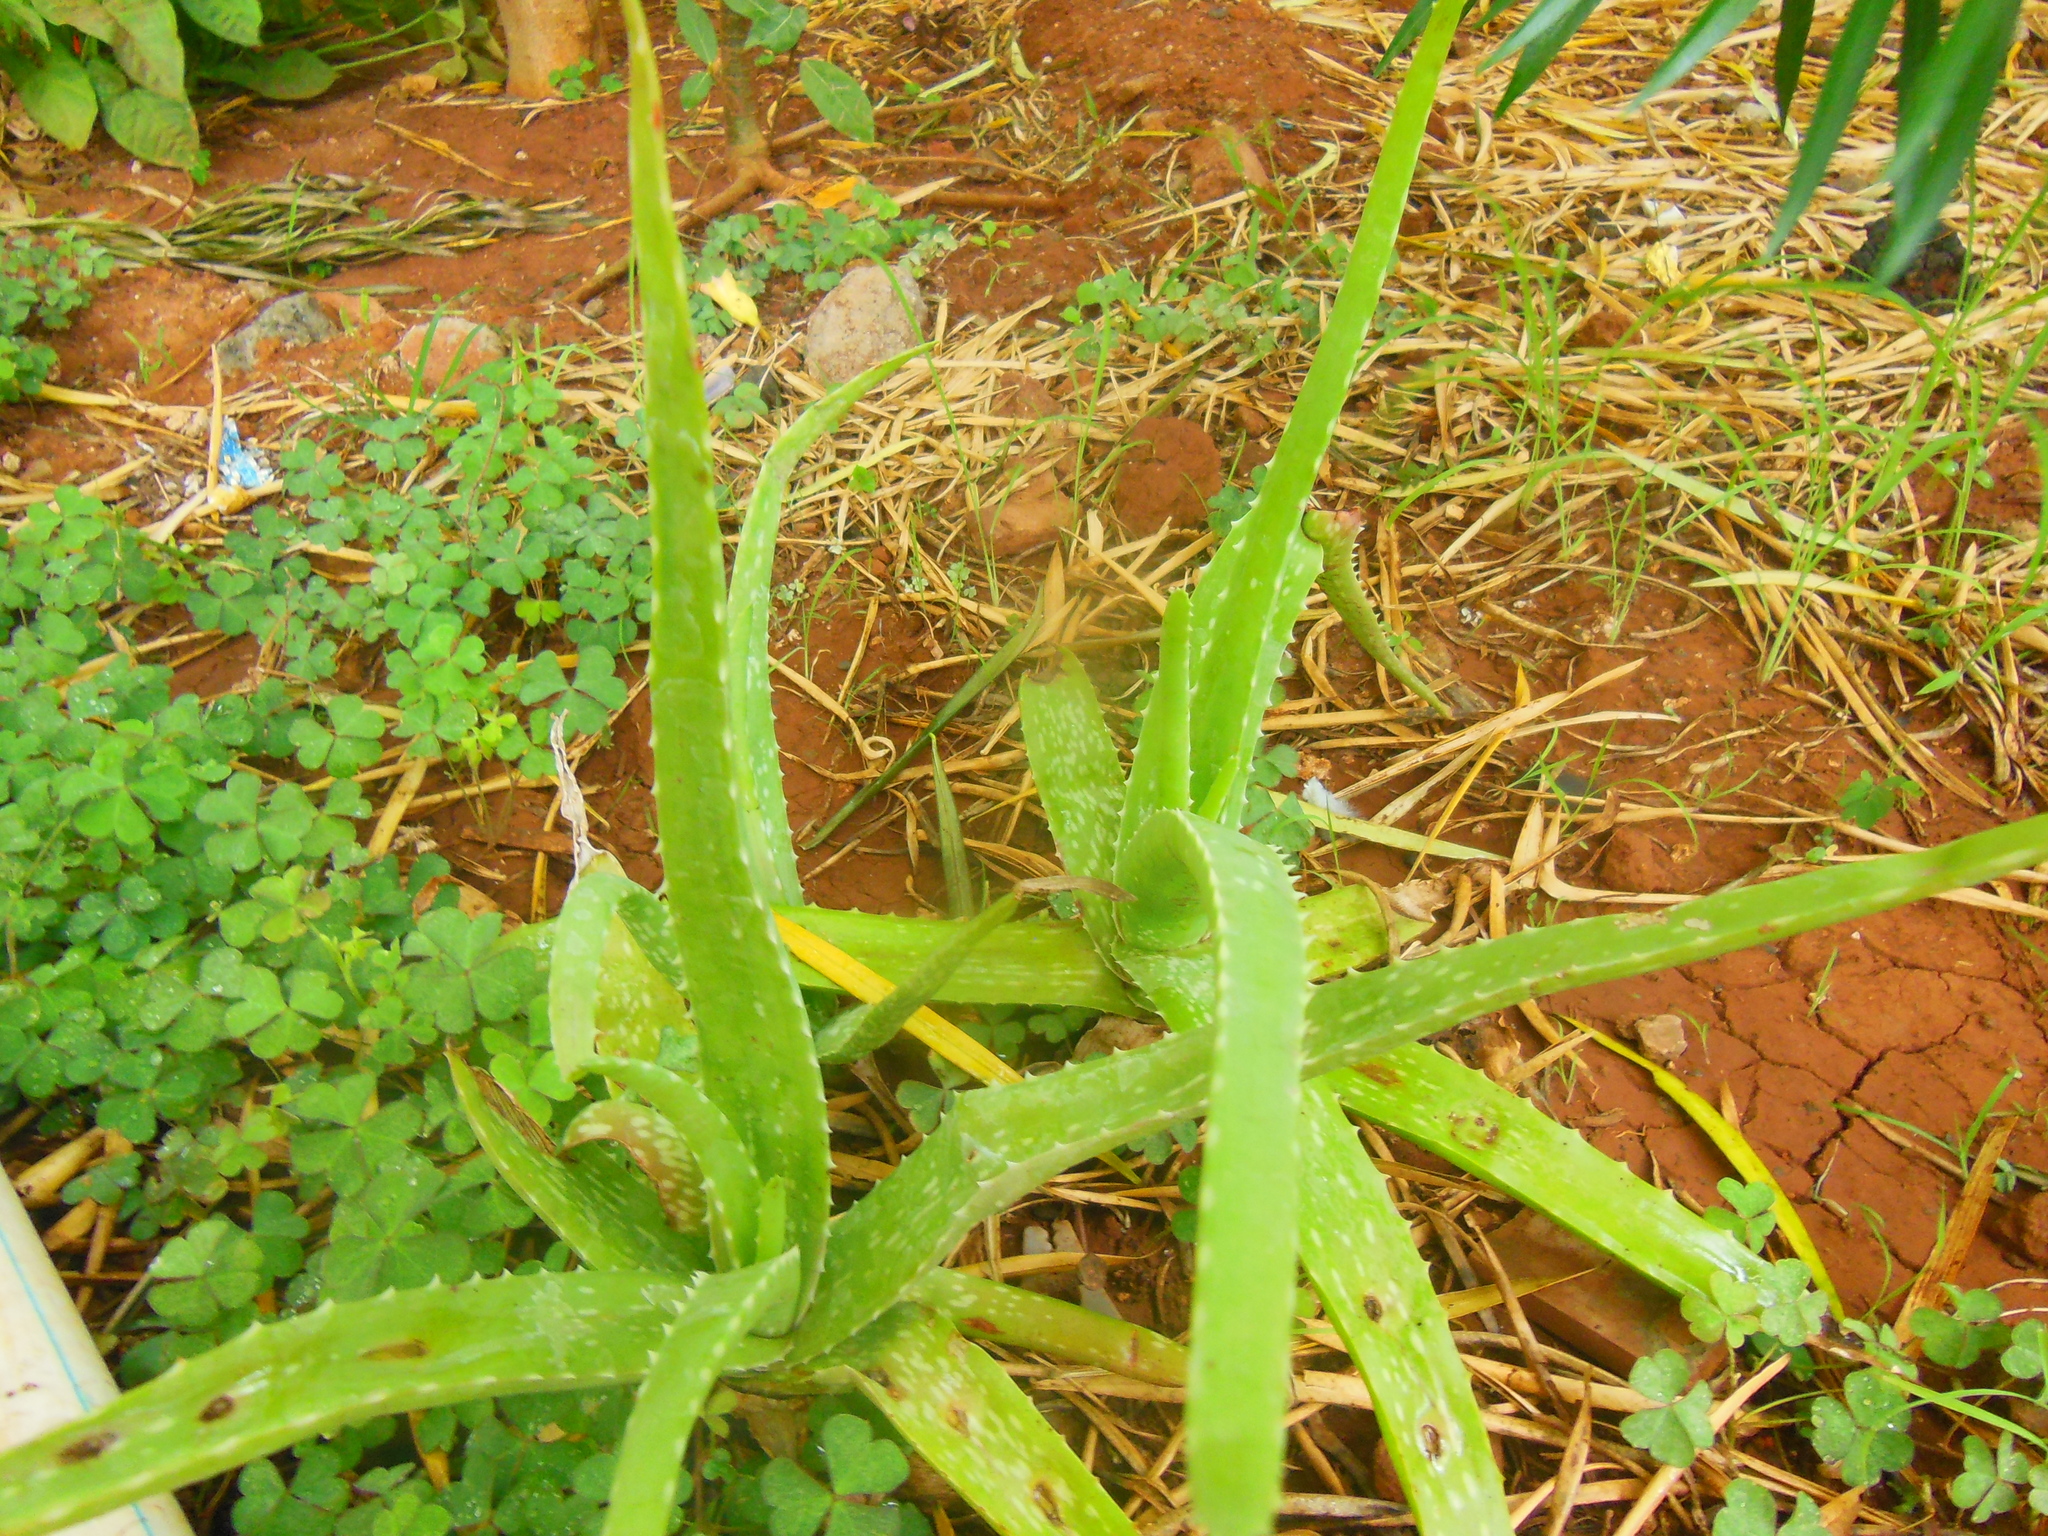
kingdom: Plantae
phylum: Tracheophyta
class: Liliopsida
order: Asparagales
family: Asphodelaceae
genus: Aloe
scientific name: Aloe vera
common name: Barbados aloe
